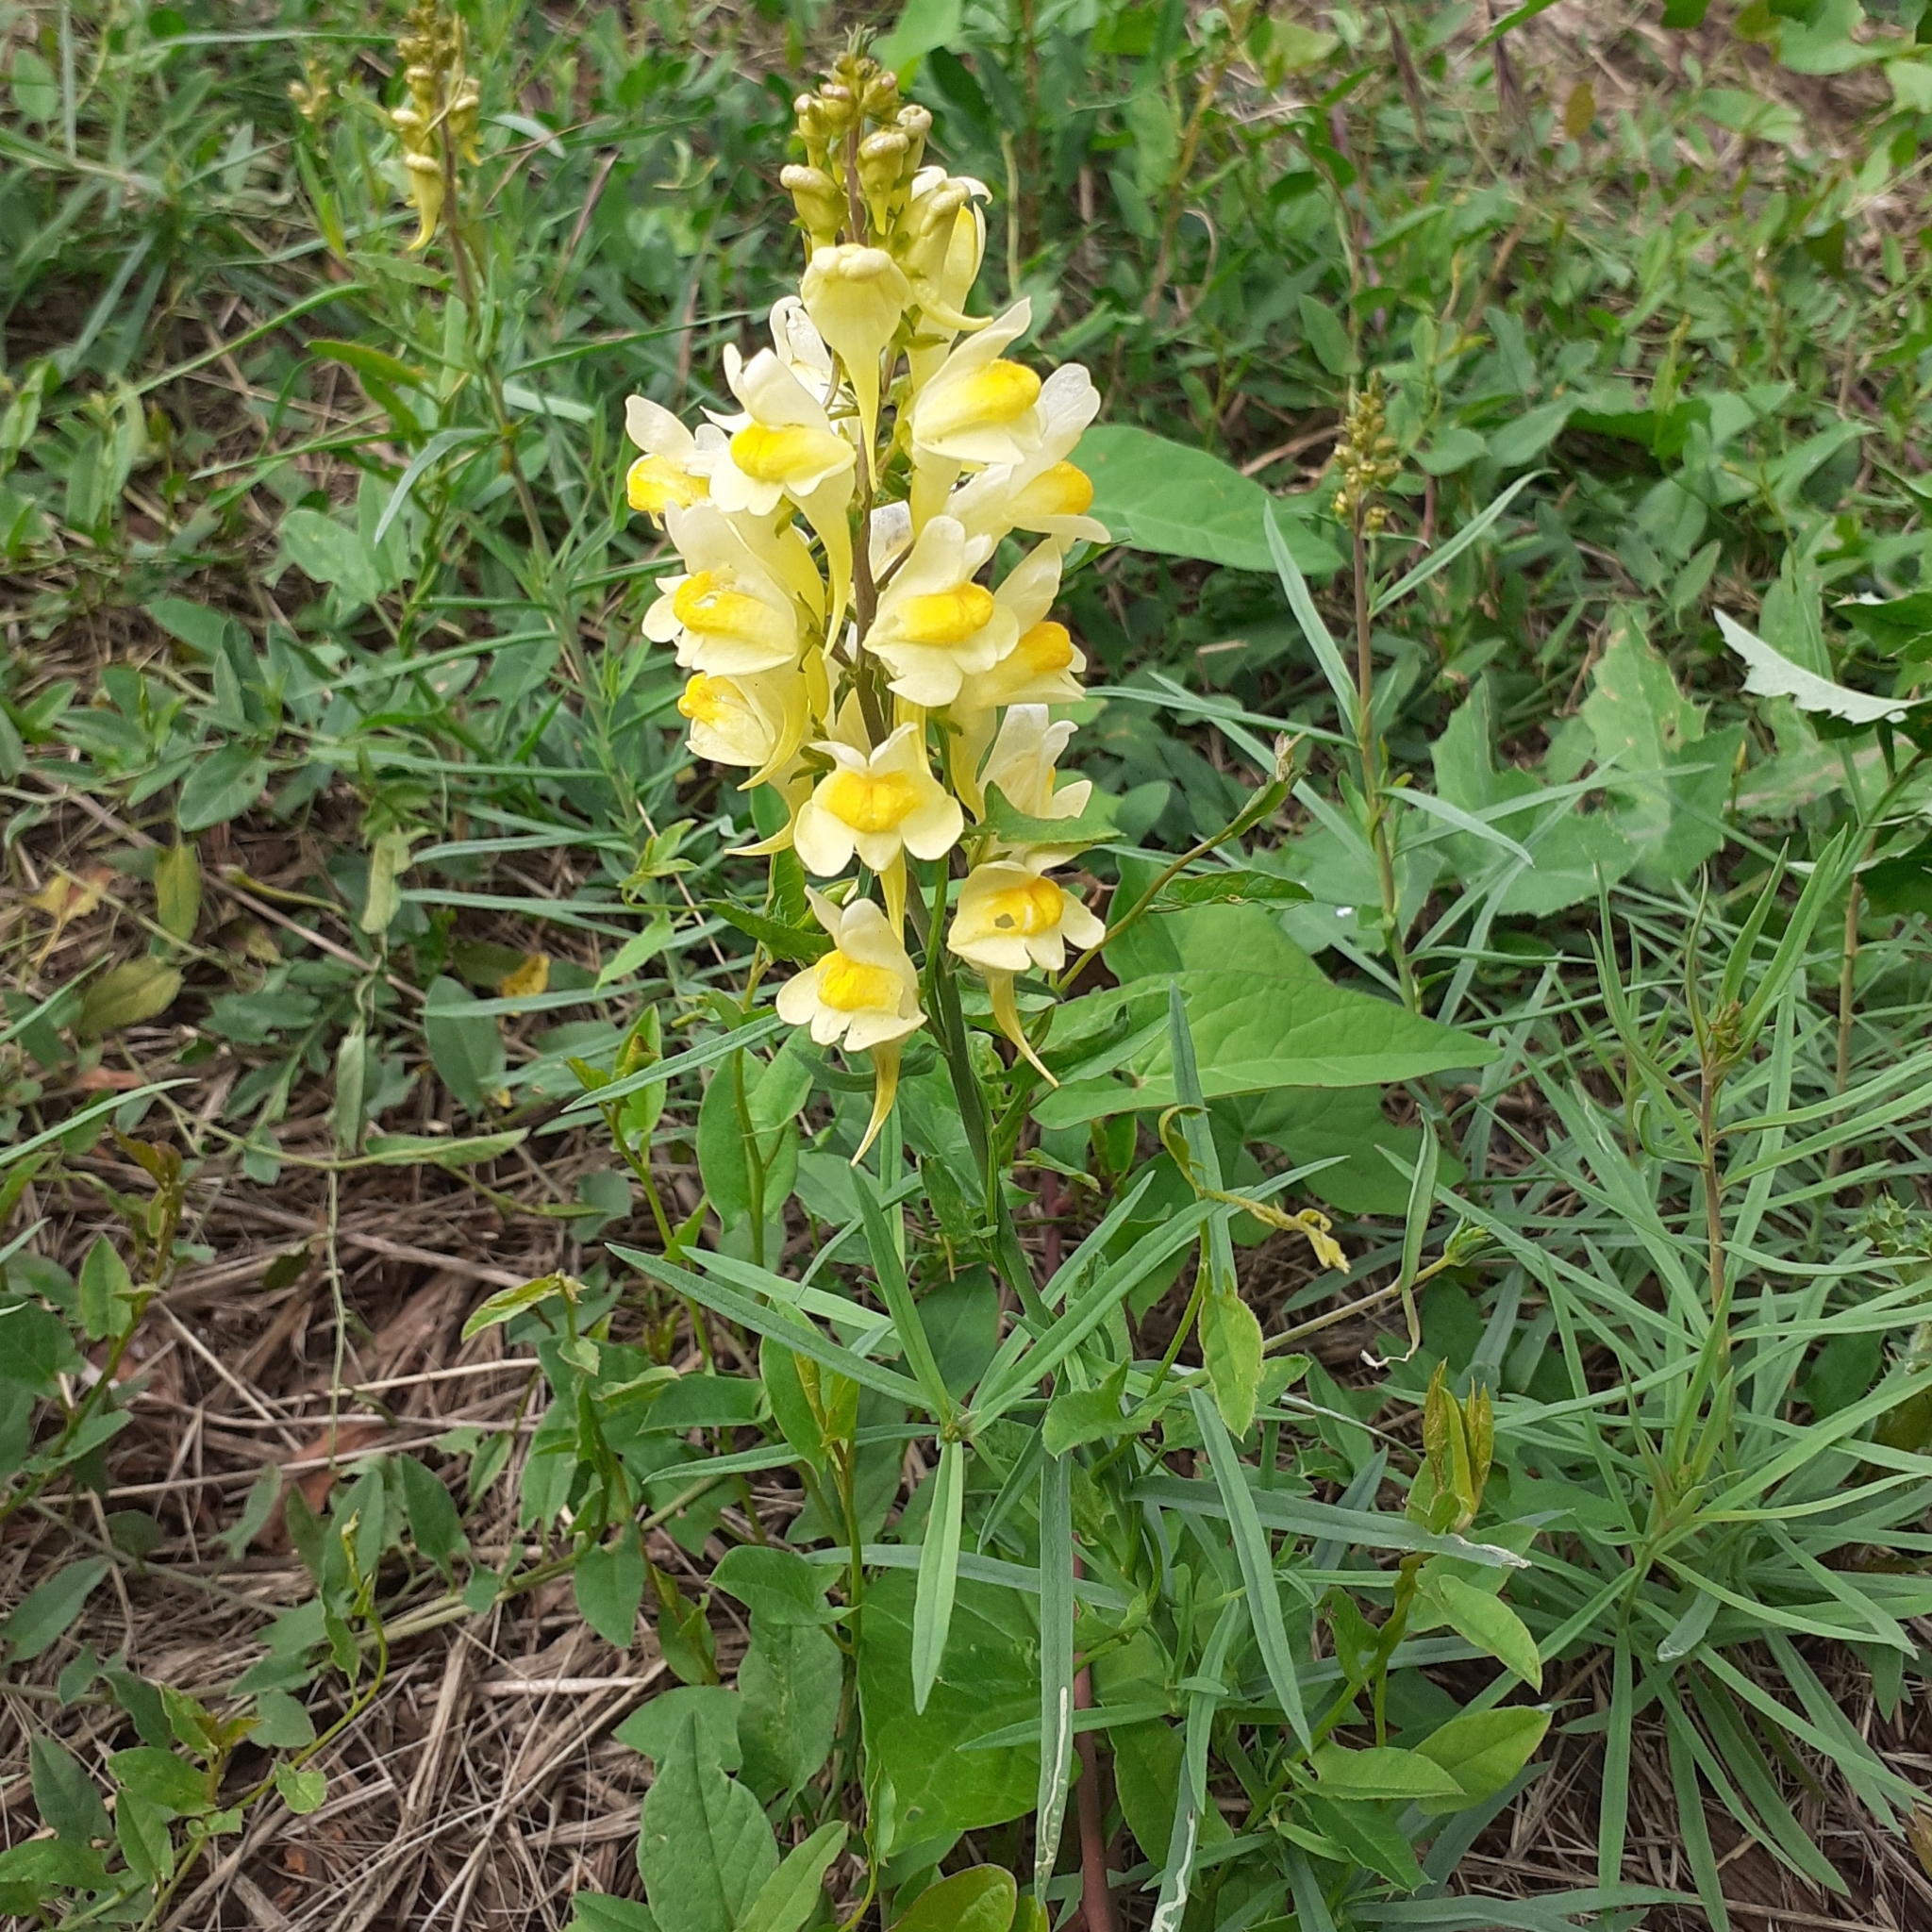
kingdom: Plantae
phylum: Tracheophyta
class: Magnoliopsida
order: Lamiales
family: Plantaginaceae
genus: Linaria
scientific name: Linaria vulgaris
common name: Butter and eggs
